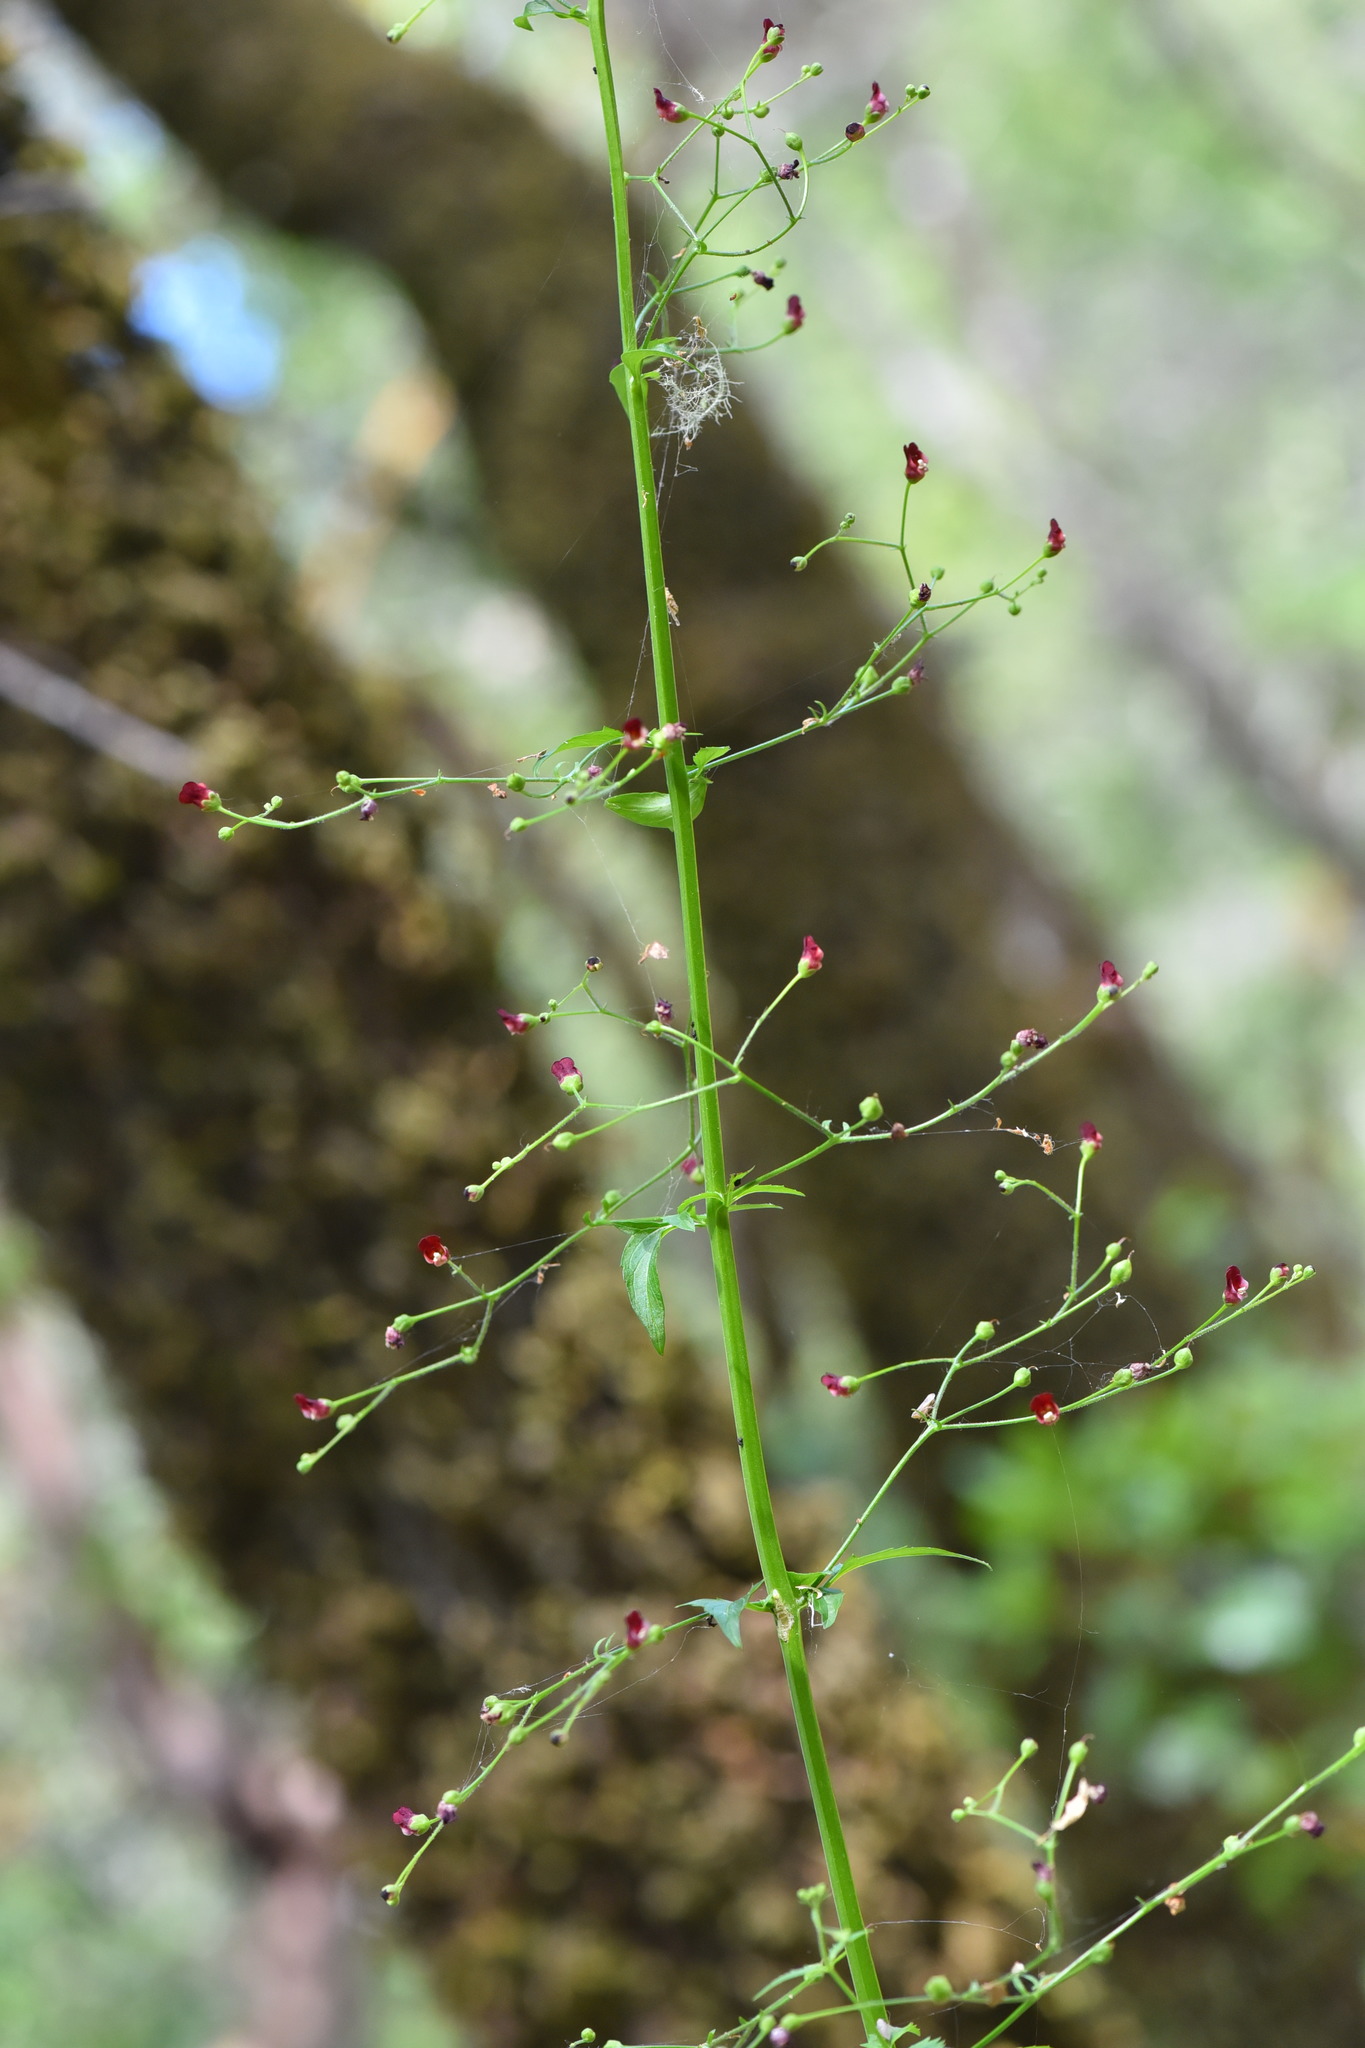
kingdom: Plantae
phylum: Tracheophyta
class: Magnoliopsida
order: Lamiales
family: Scrophulariaceae
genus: Scrophularia
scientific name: Scrophularia californica
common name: California figwort
